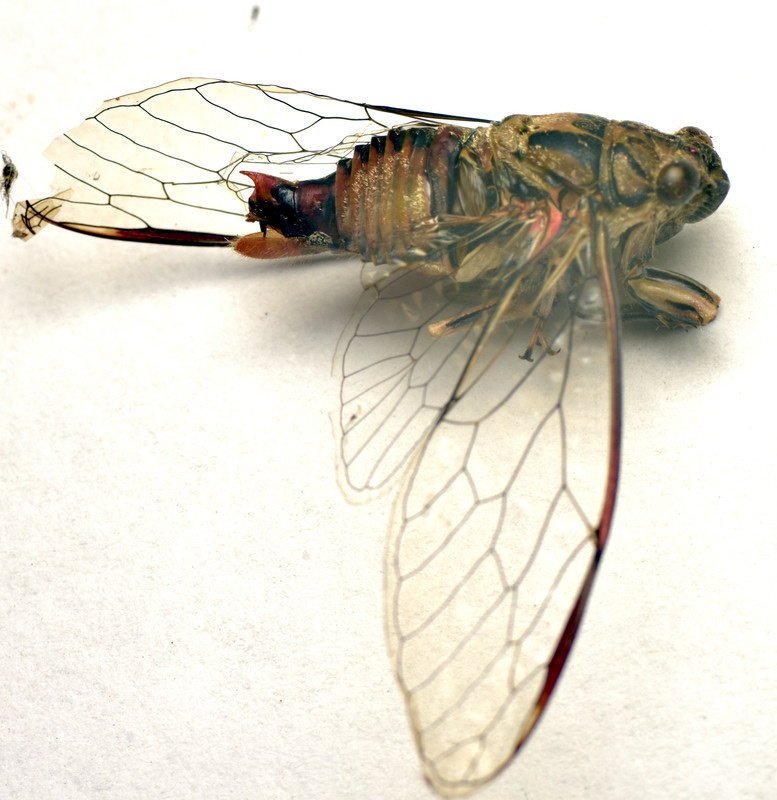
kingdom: Animalia
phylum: Arthropoda
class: Insecta
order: Hemiptera
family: Cicadidae
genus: Yoyetta
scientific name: Yoyetta celis
